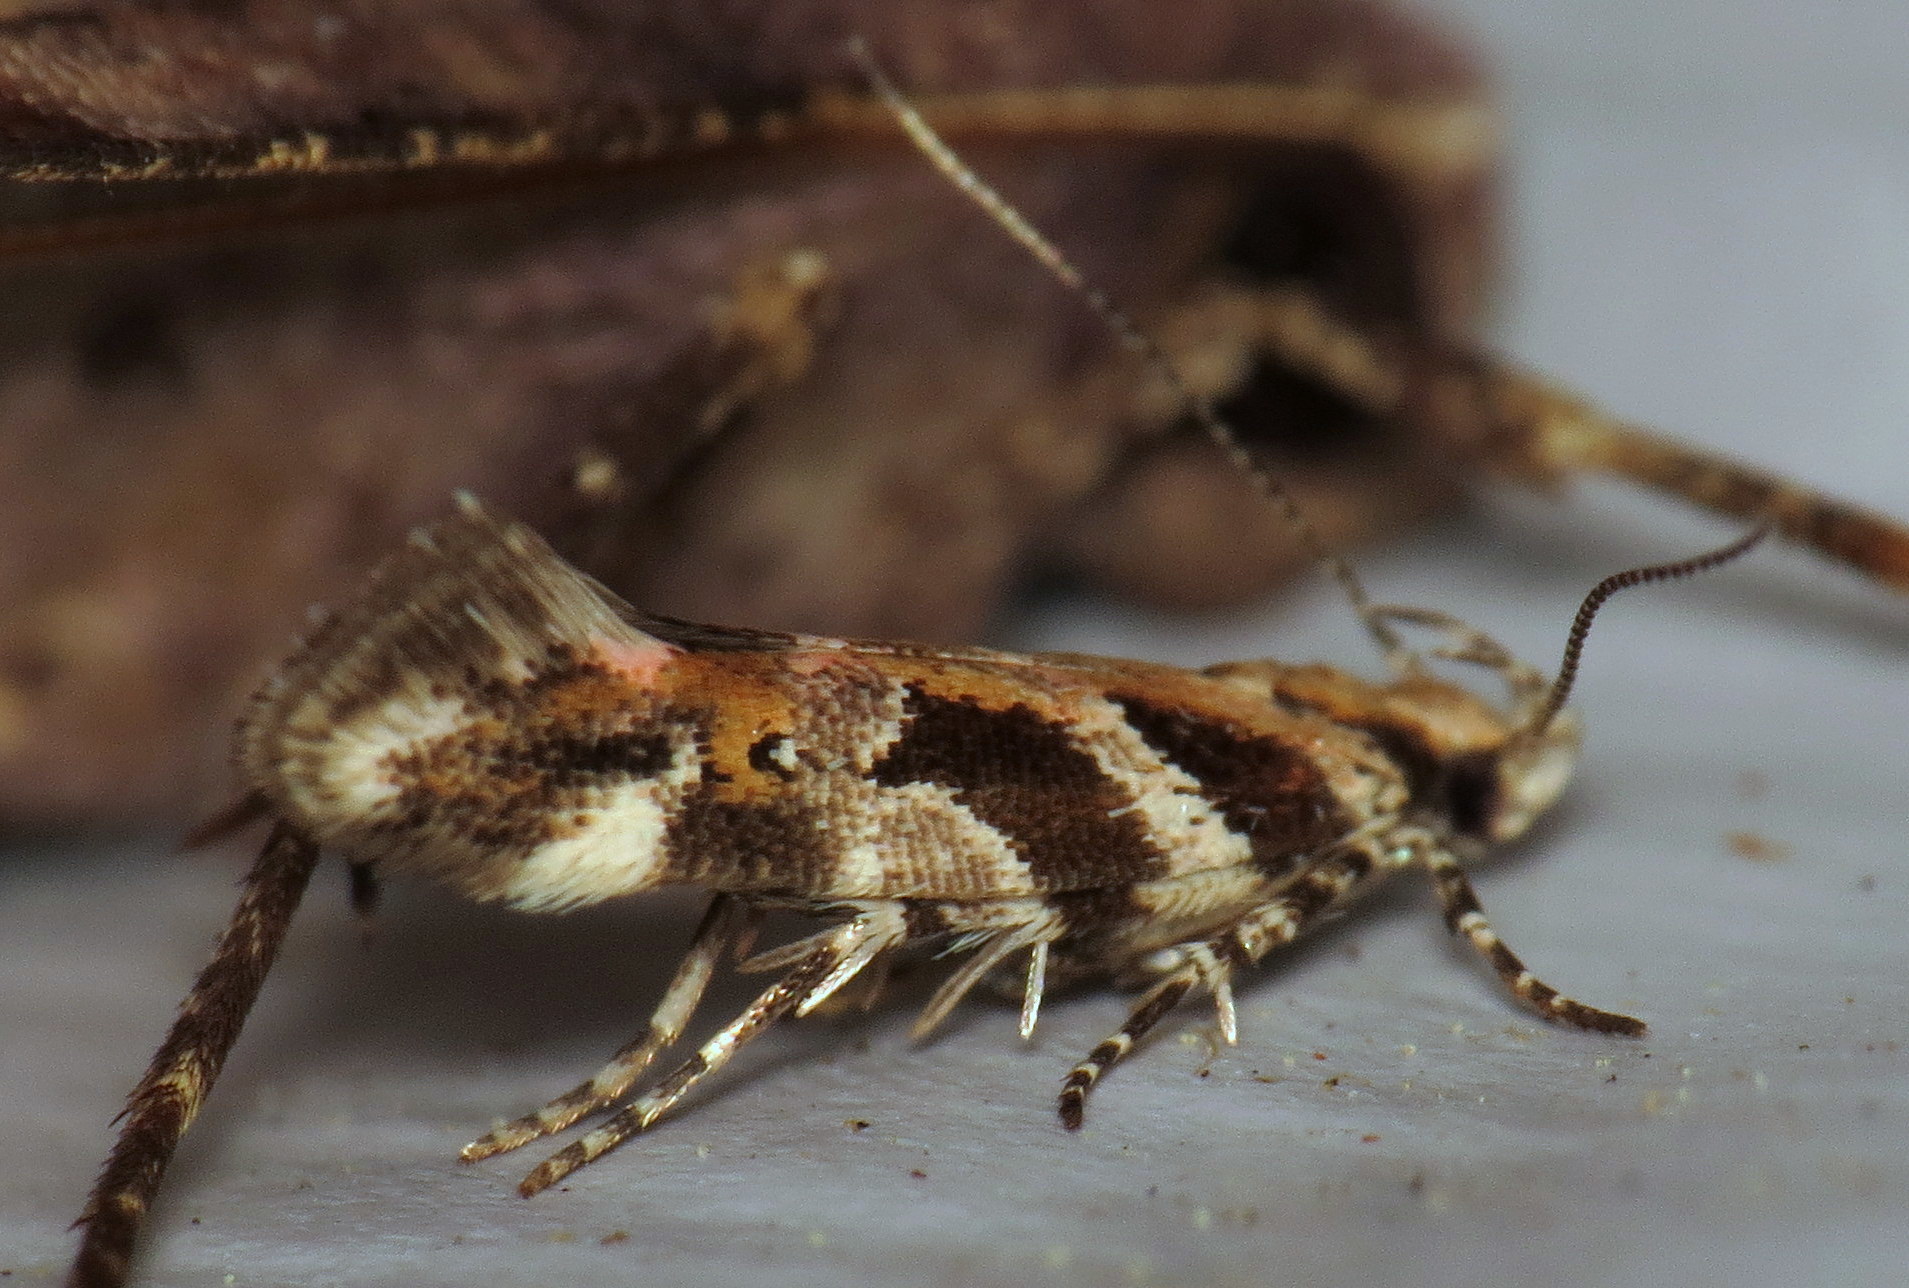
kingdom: Animalia
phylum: Arthropoda
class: Insecta
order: Lepidoptera
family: Gelechiidae
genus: Aristotelia
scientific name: Aristotelia roseosuffusella
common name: Pink-washed aristotelia moth
